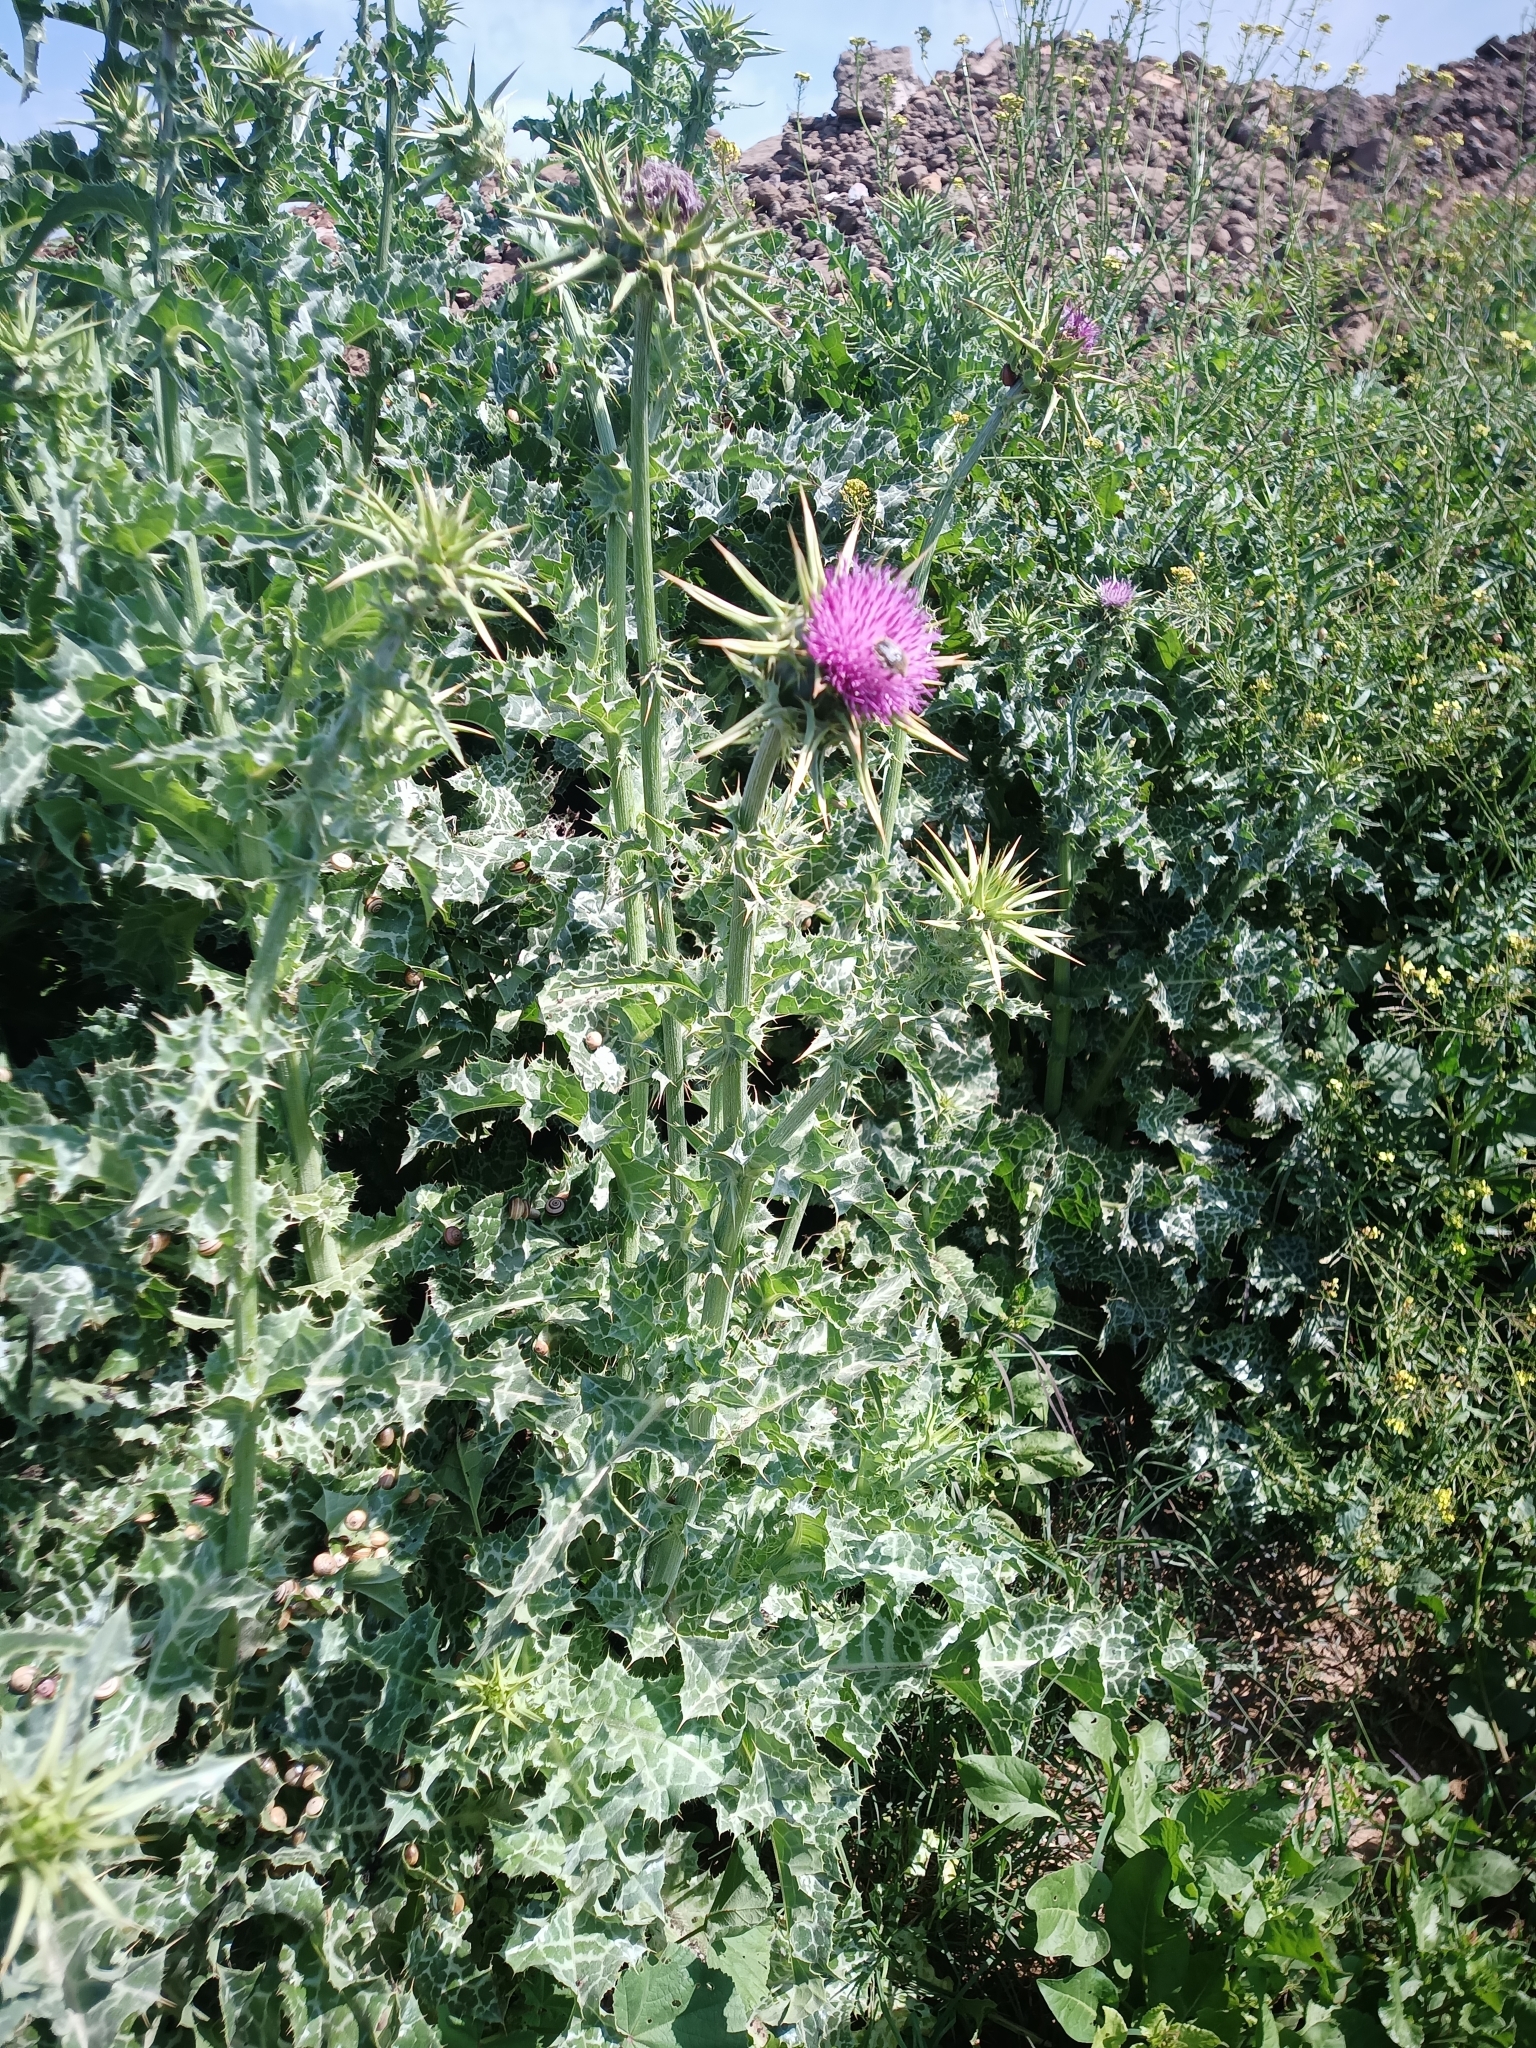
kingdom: Plantae
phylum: Tracheophyta
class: Magnoliopsida
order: Asterales
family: Asteraceae
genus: Silybum
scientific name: Silybum marianum
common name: Milk thistle
